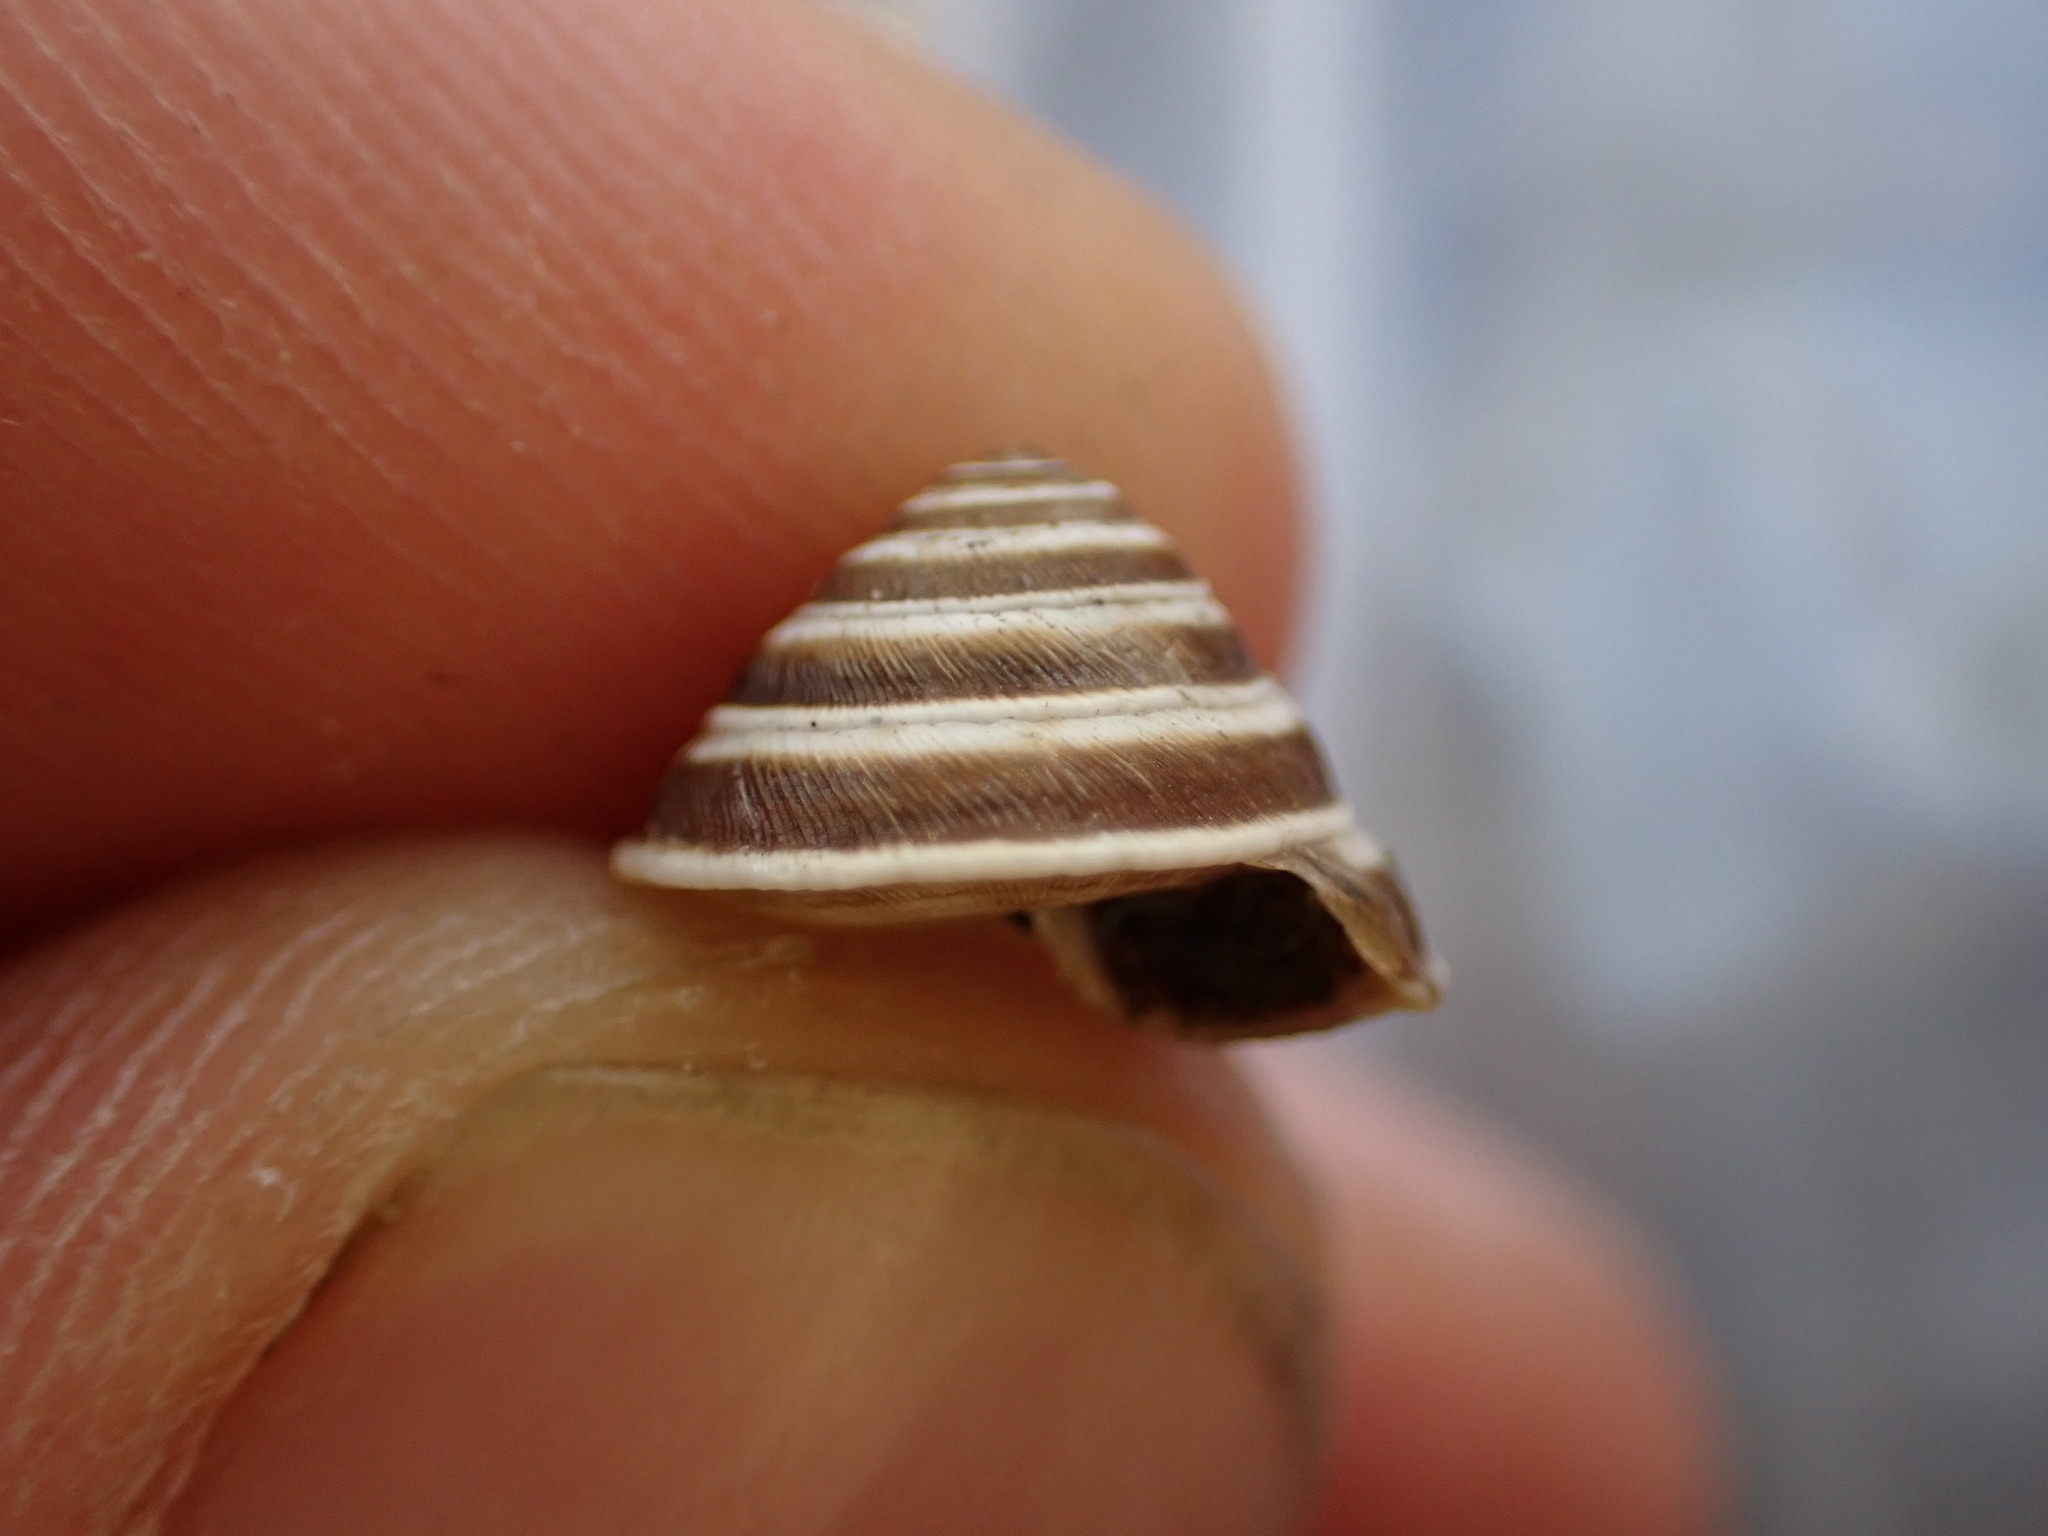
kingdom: Animalia
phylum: Mollusca
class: Gastropoda
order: Stylommatophora
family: Geomitridae
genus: Trochoidea
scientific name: Trochoidea elegans
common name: Elegant helicellid
